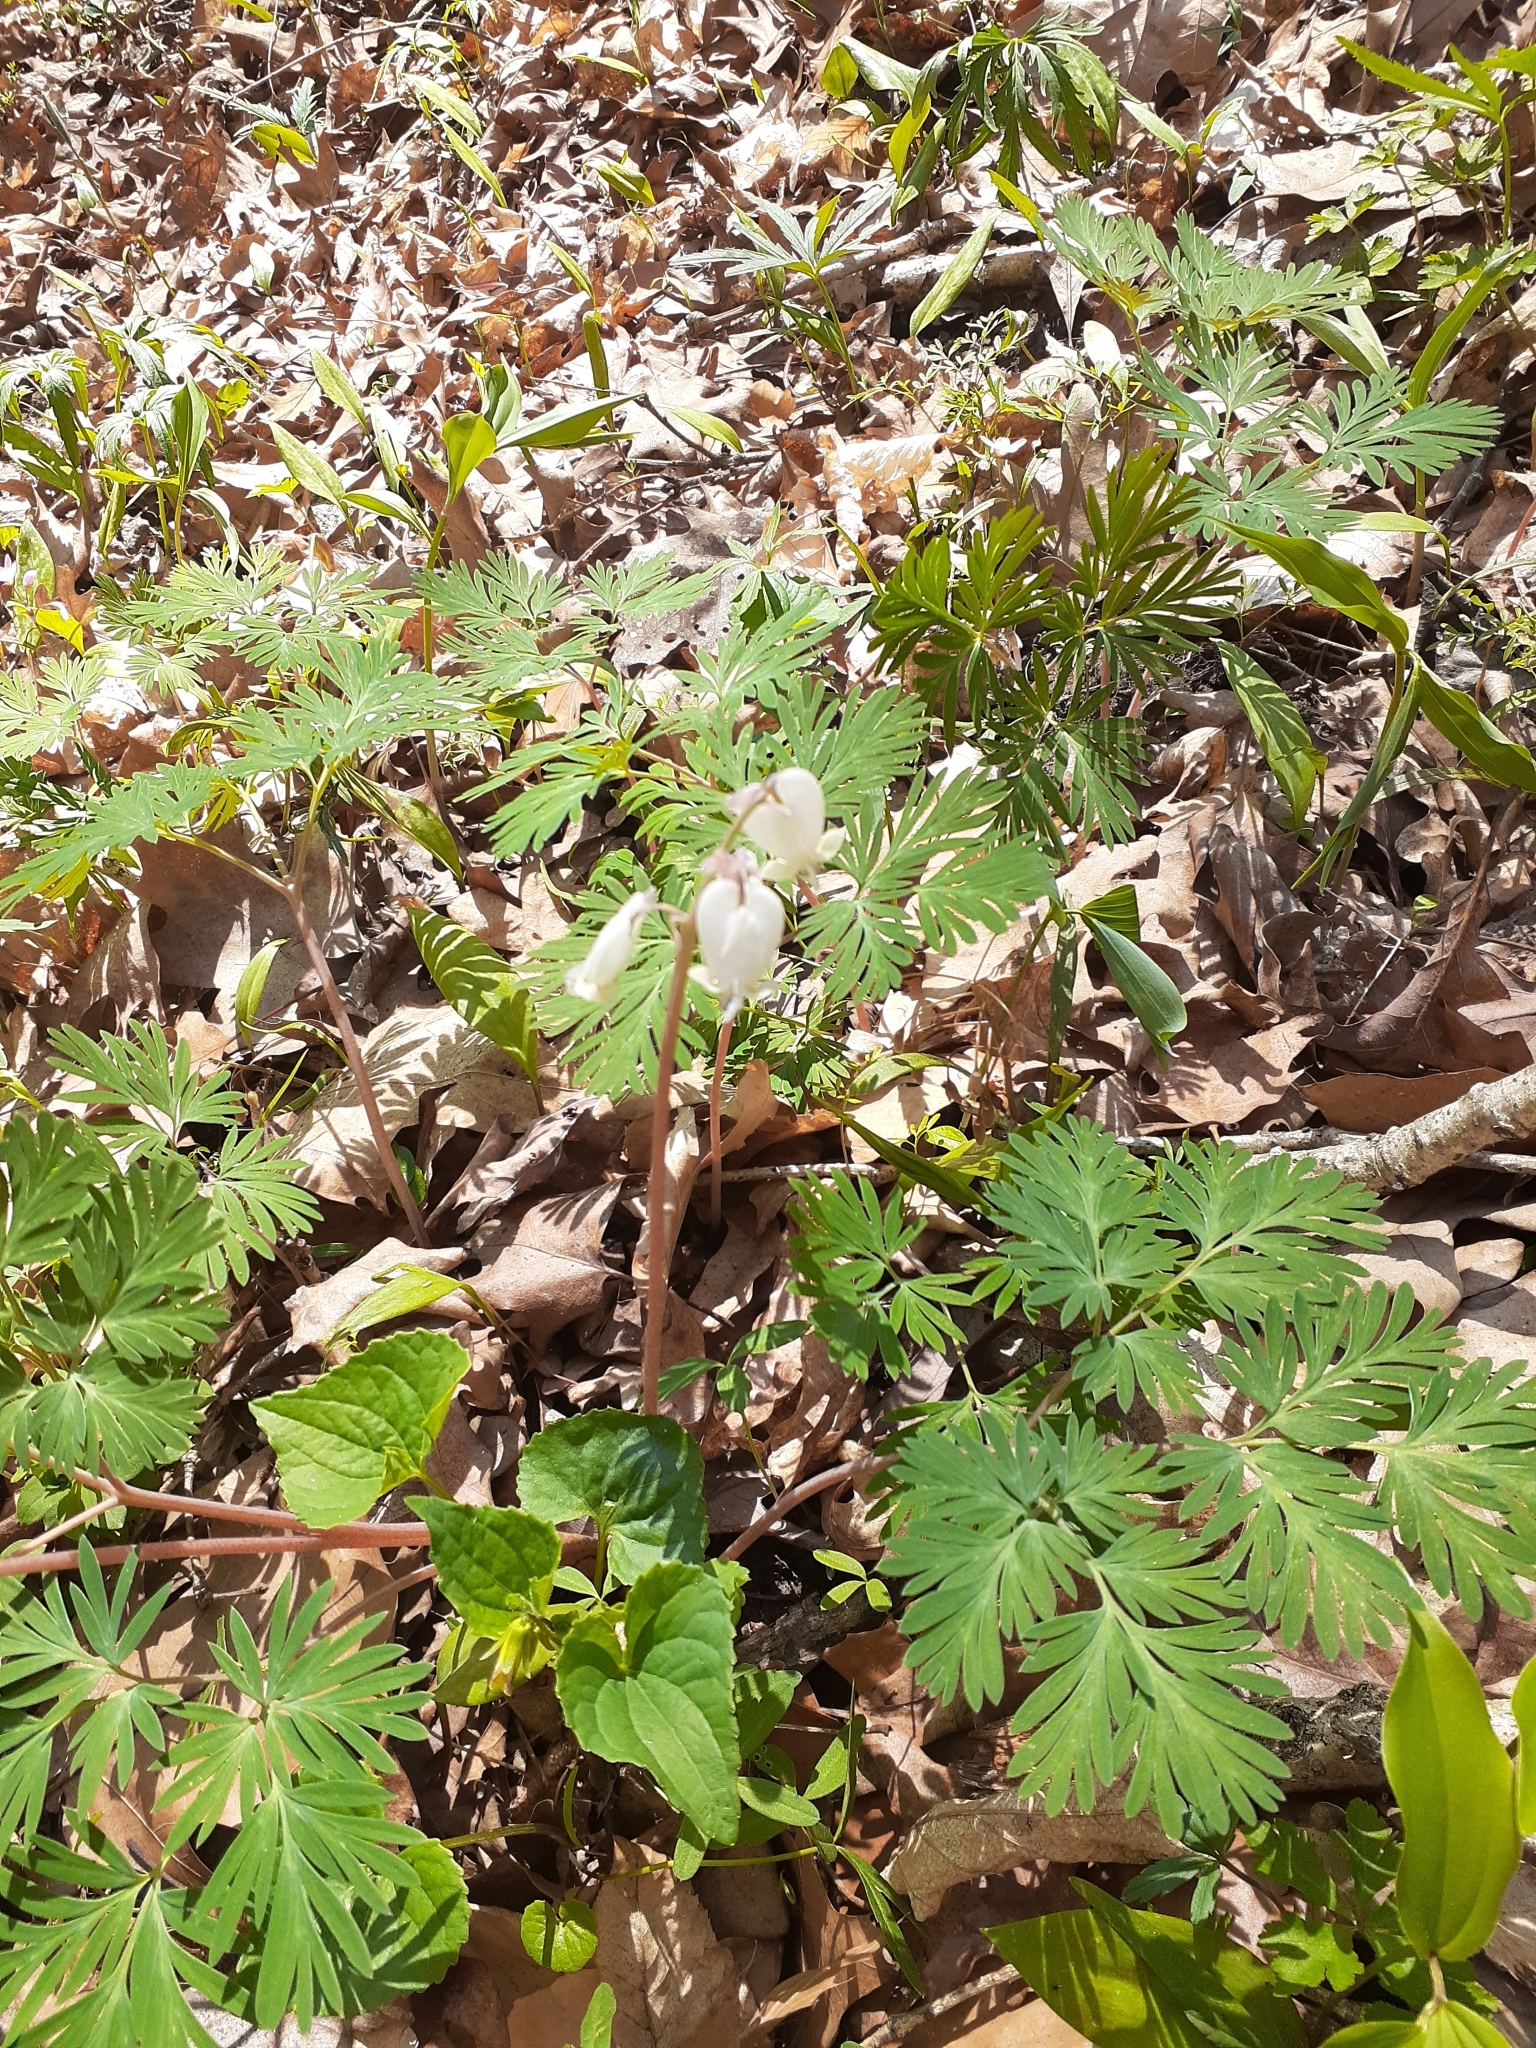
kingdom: Plantae
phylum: Tracheophyta
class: Magnoliopsida
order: Ranunculales
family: Papaveraceae
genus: Dicentra
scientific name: Dicentra canadensis
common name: Squirrel-corn
